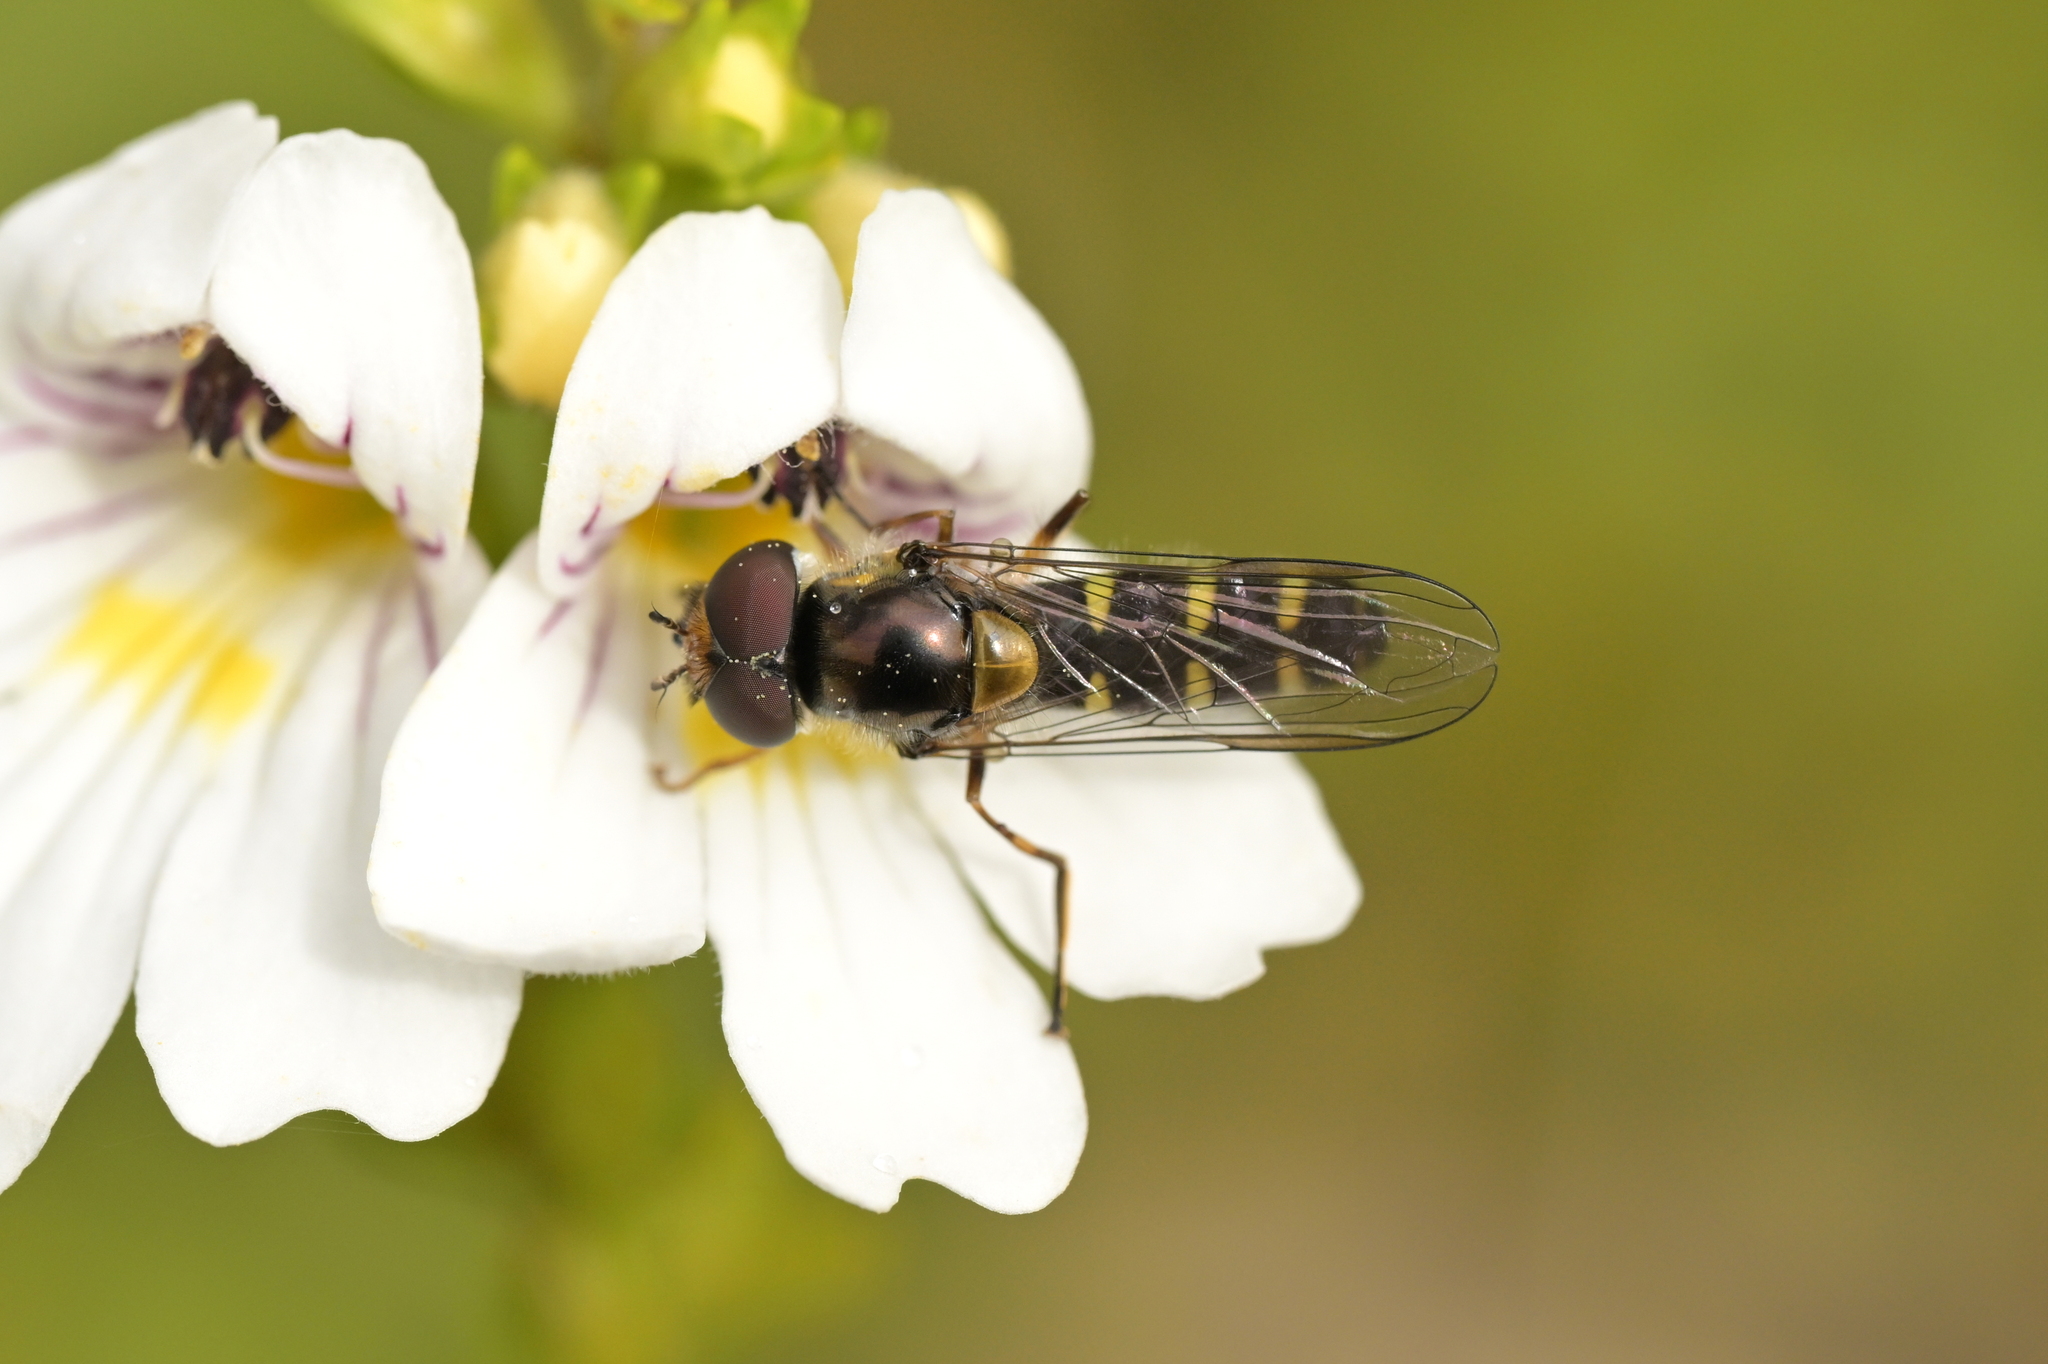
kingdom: Animalia
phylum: Arthropoda
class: Insecta
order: Diptera
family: Syrphidae
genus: Melangyna
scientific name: Melangyna novaezelandiae
